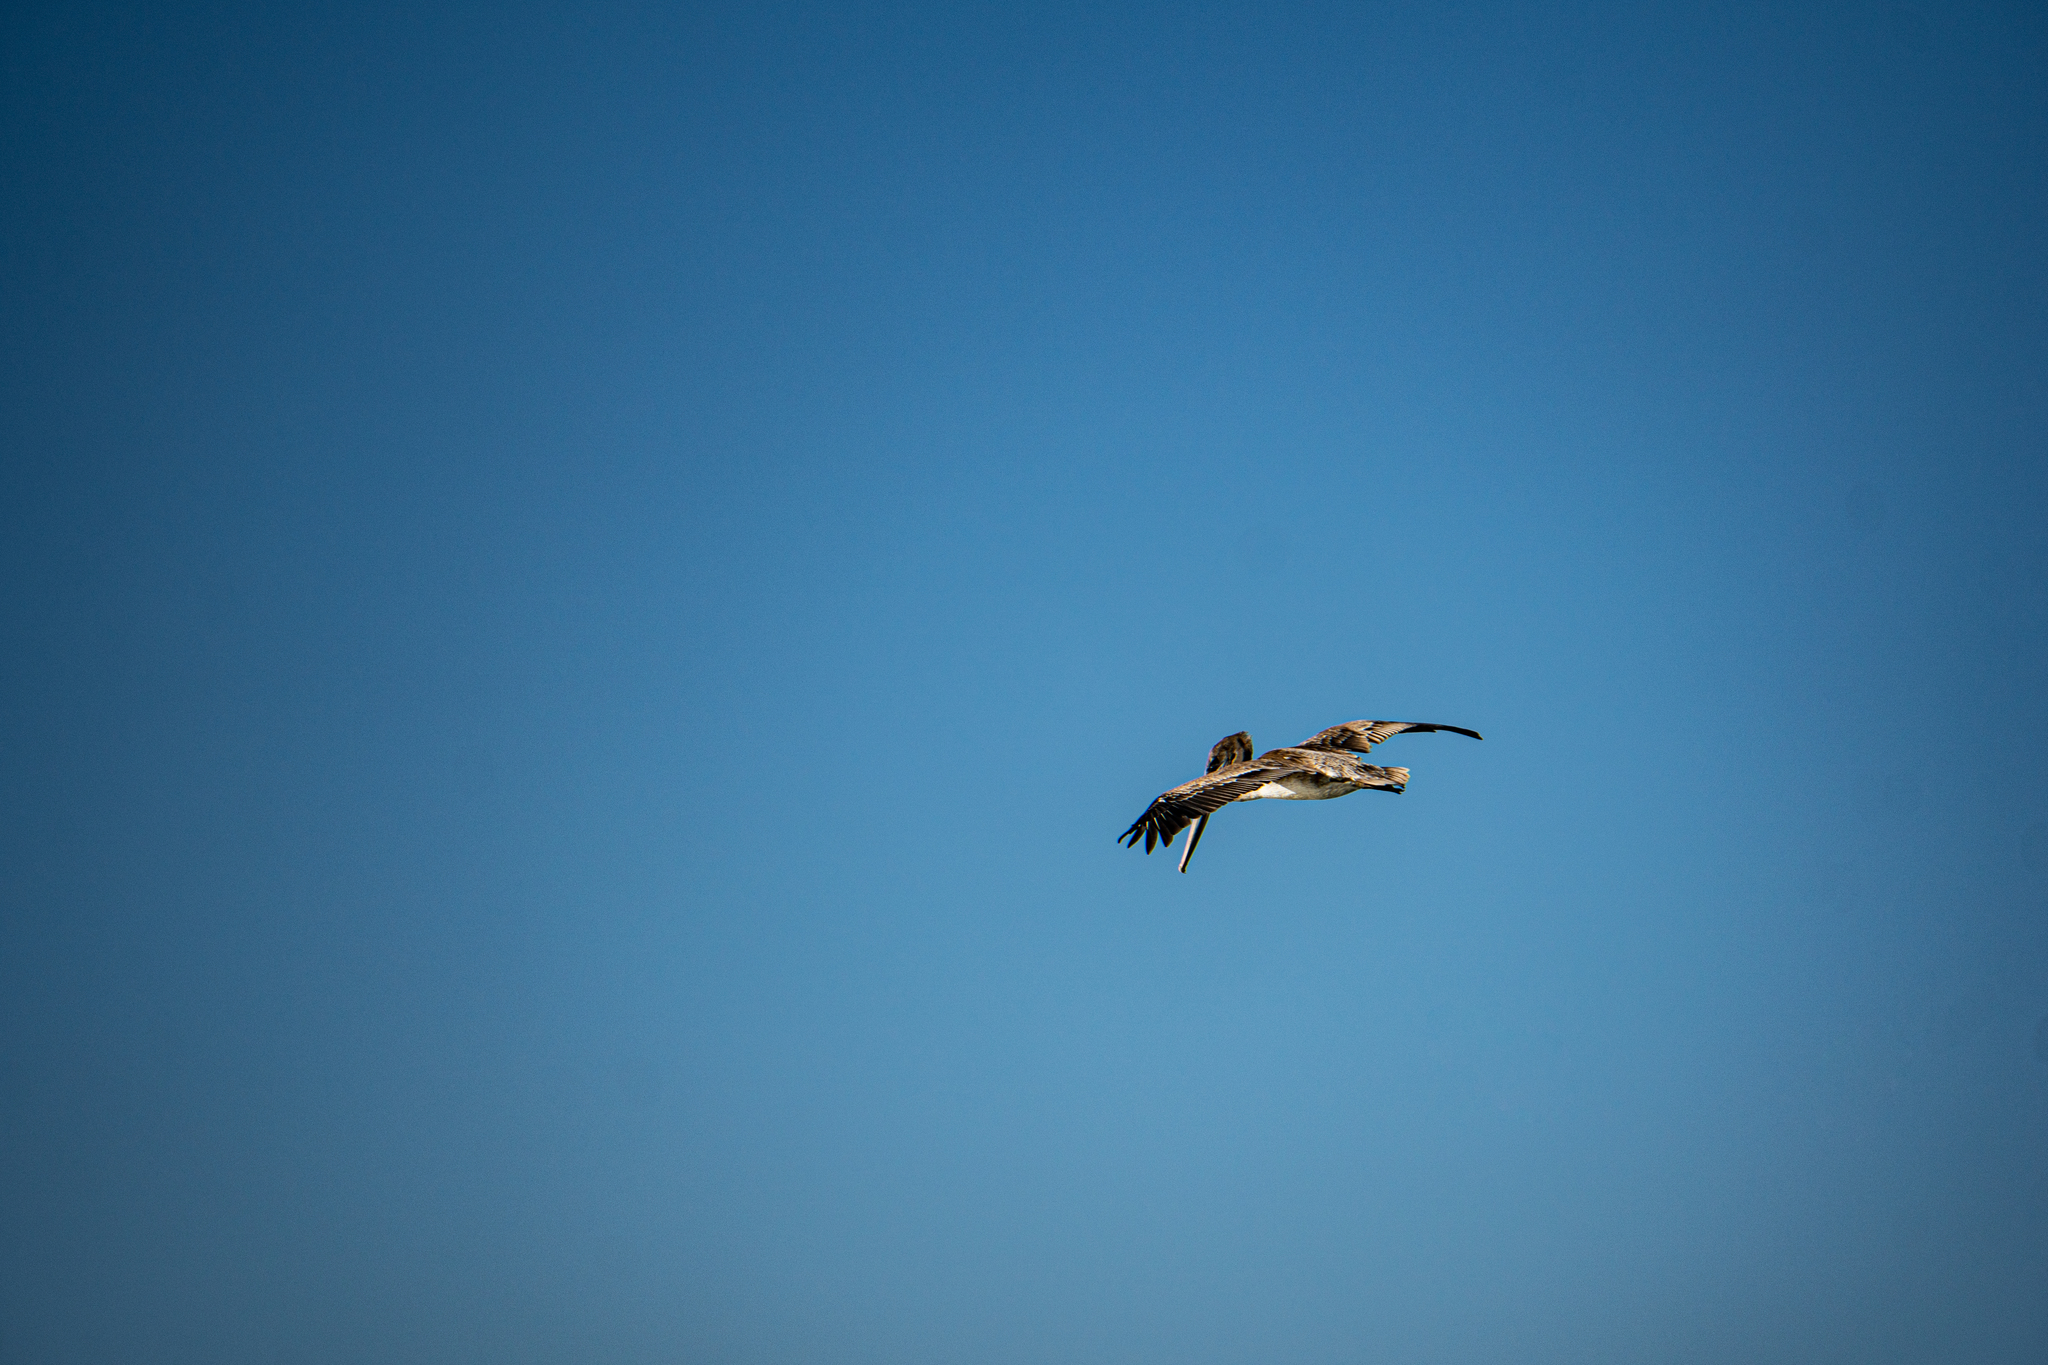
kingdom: Animalia
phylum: Chordata
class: Aves
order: Pelecaniformes
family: Pelecanidae
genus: Pelecanus
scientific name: Pelecanus occidentalis
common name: Brown pelican
